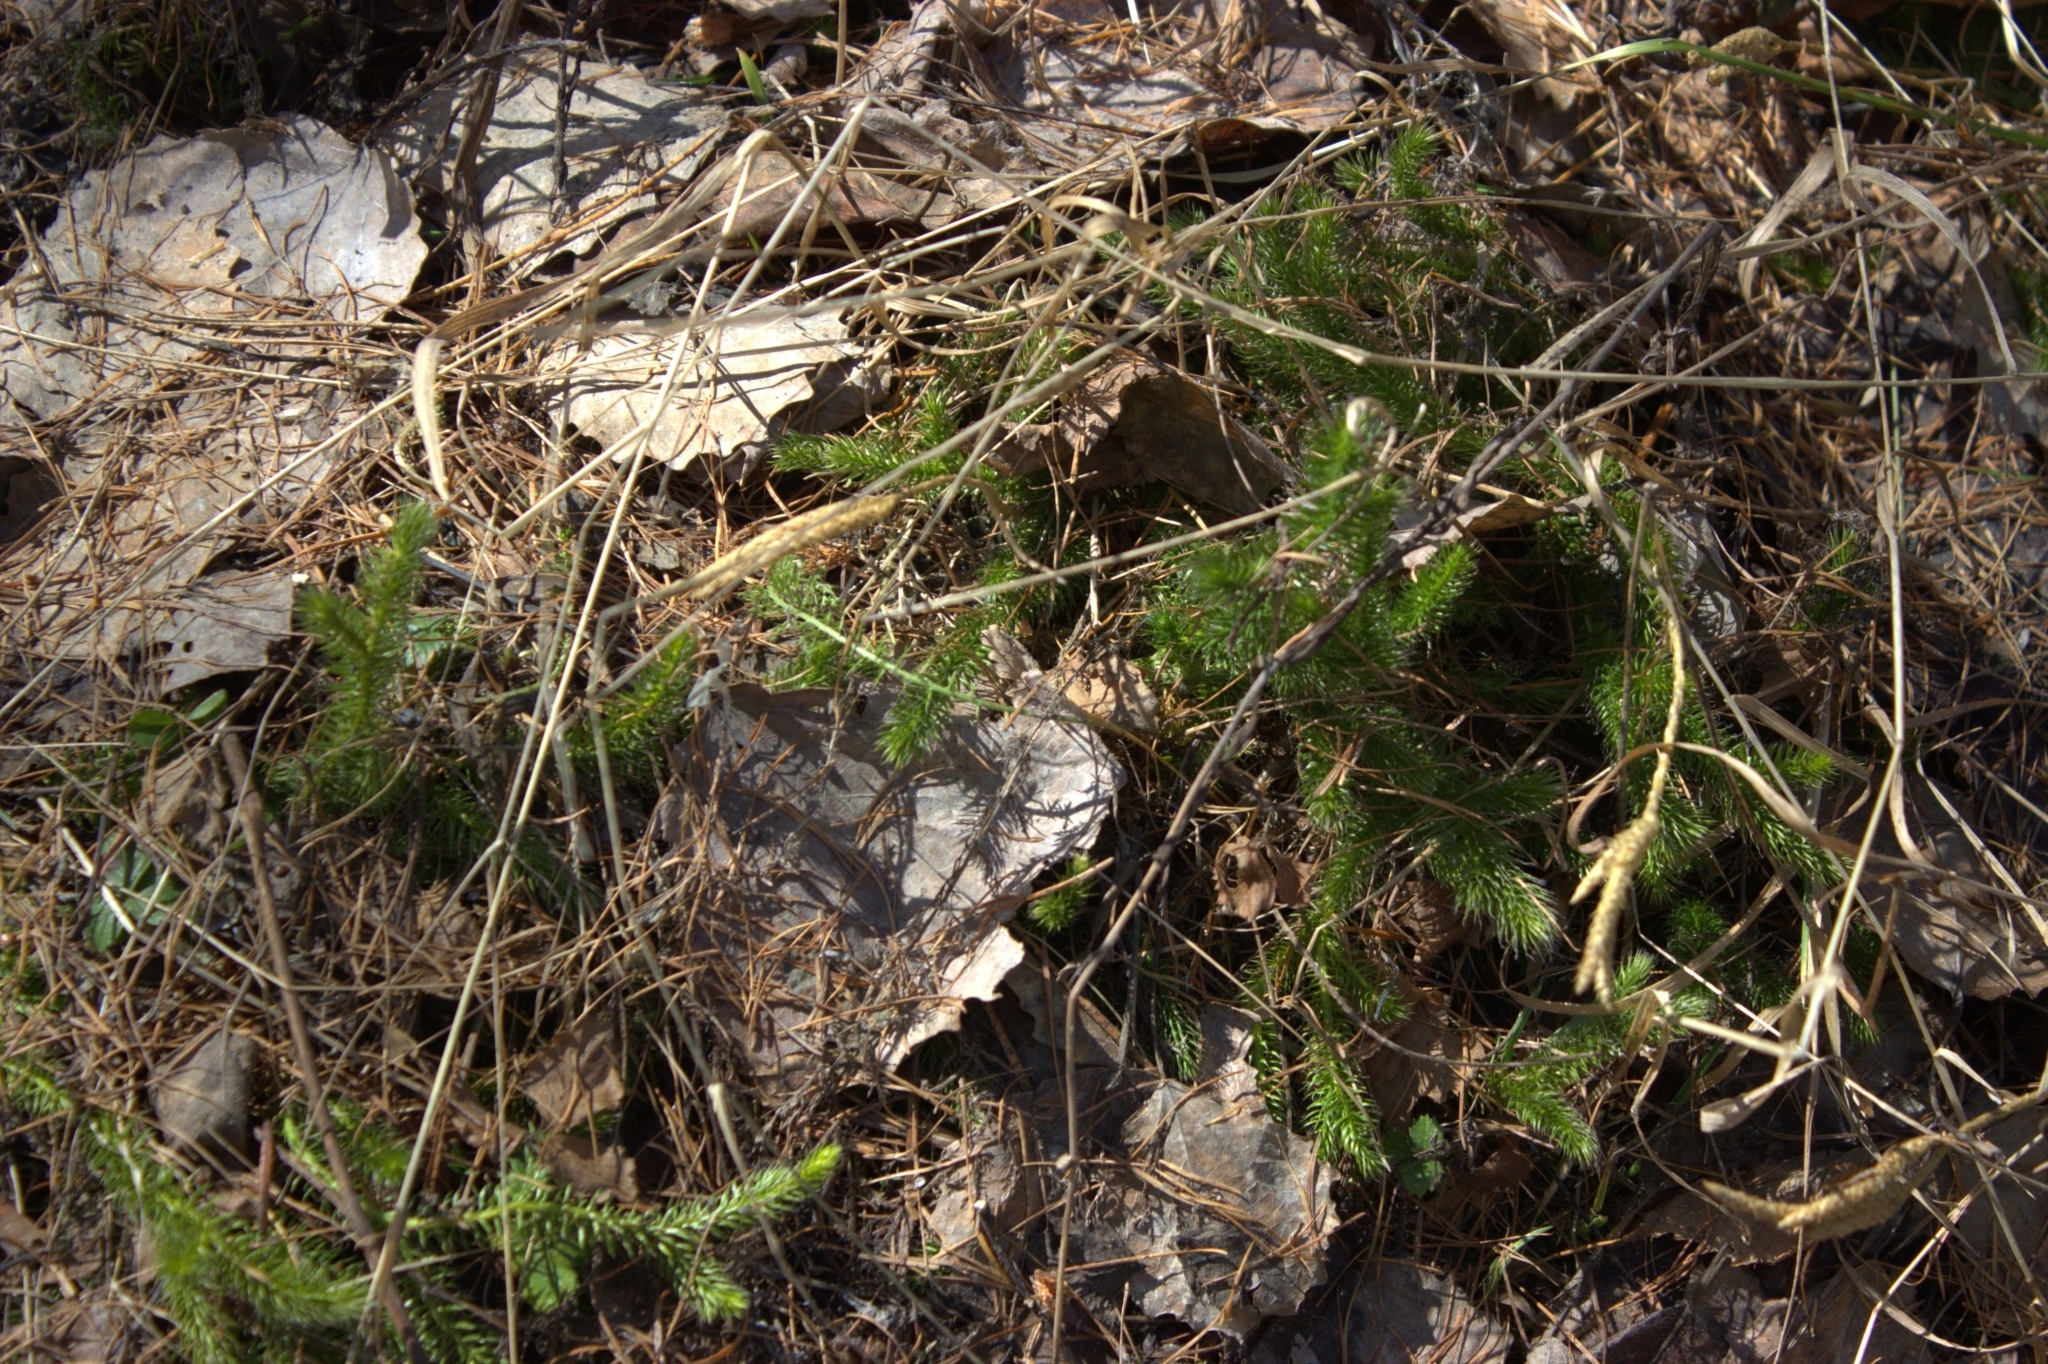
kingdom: Plantae
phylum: Tracheophyta
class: Lycopodiopsida
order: Lycopodiales
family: Lycopodiaceae
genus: Lycopodium
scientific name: Lycopodium clavatum
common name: Stag's-horn clubmoss
